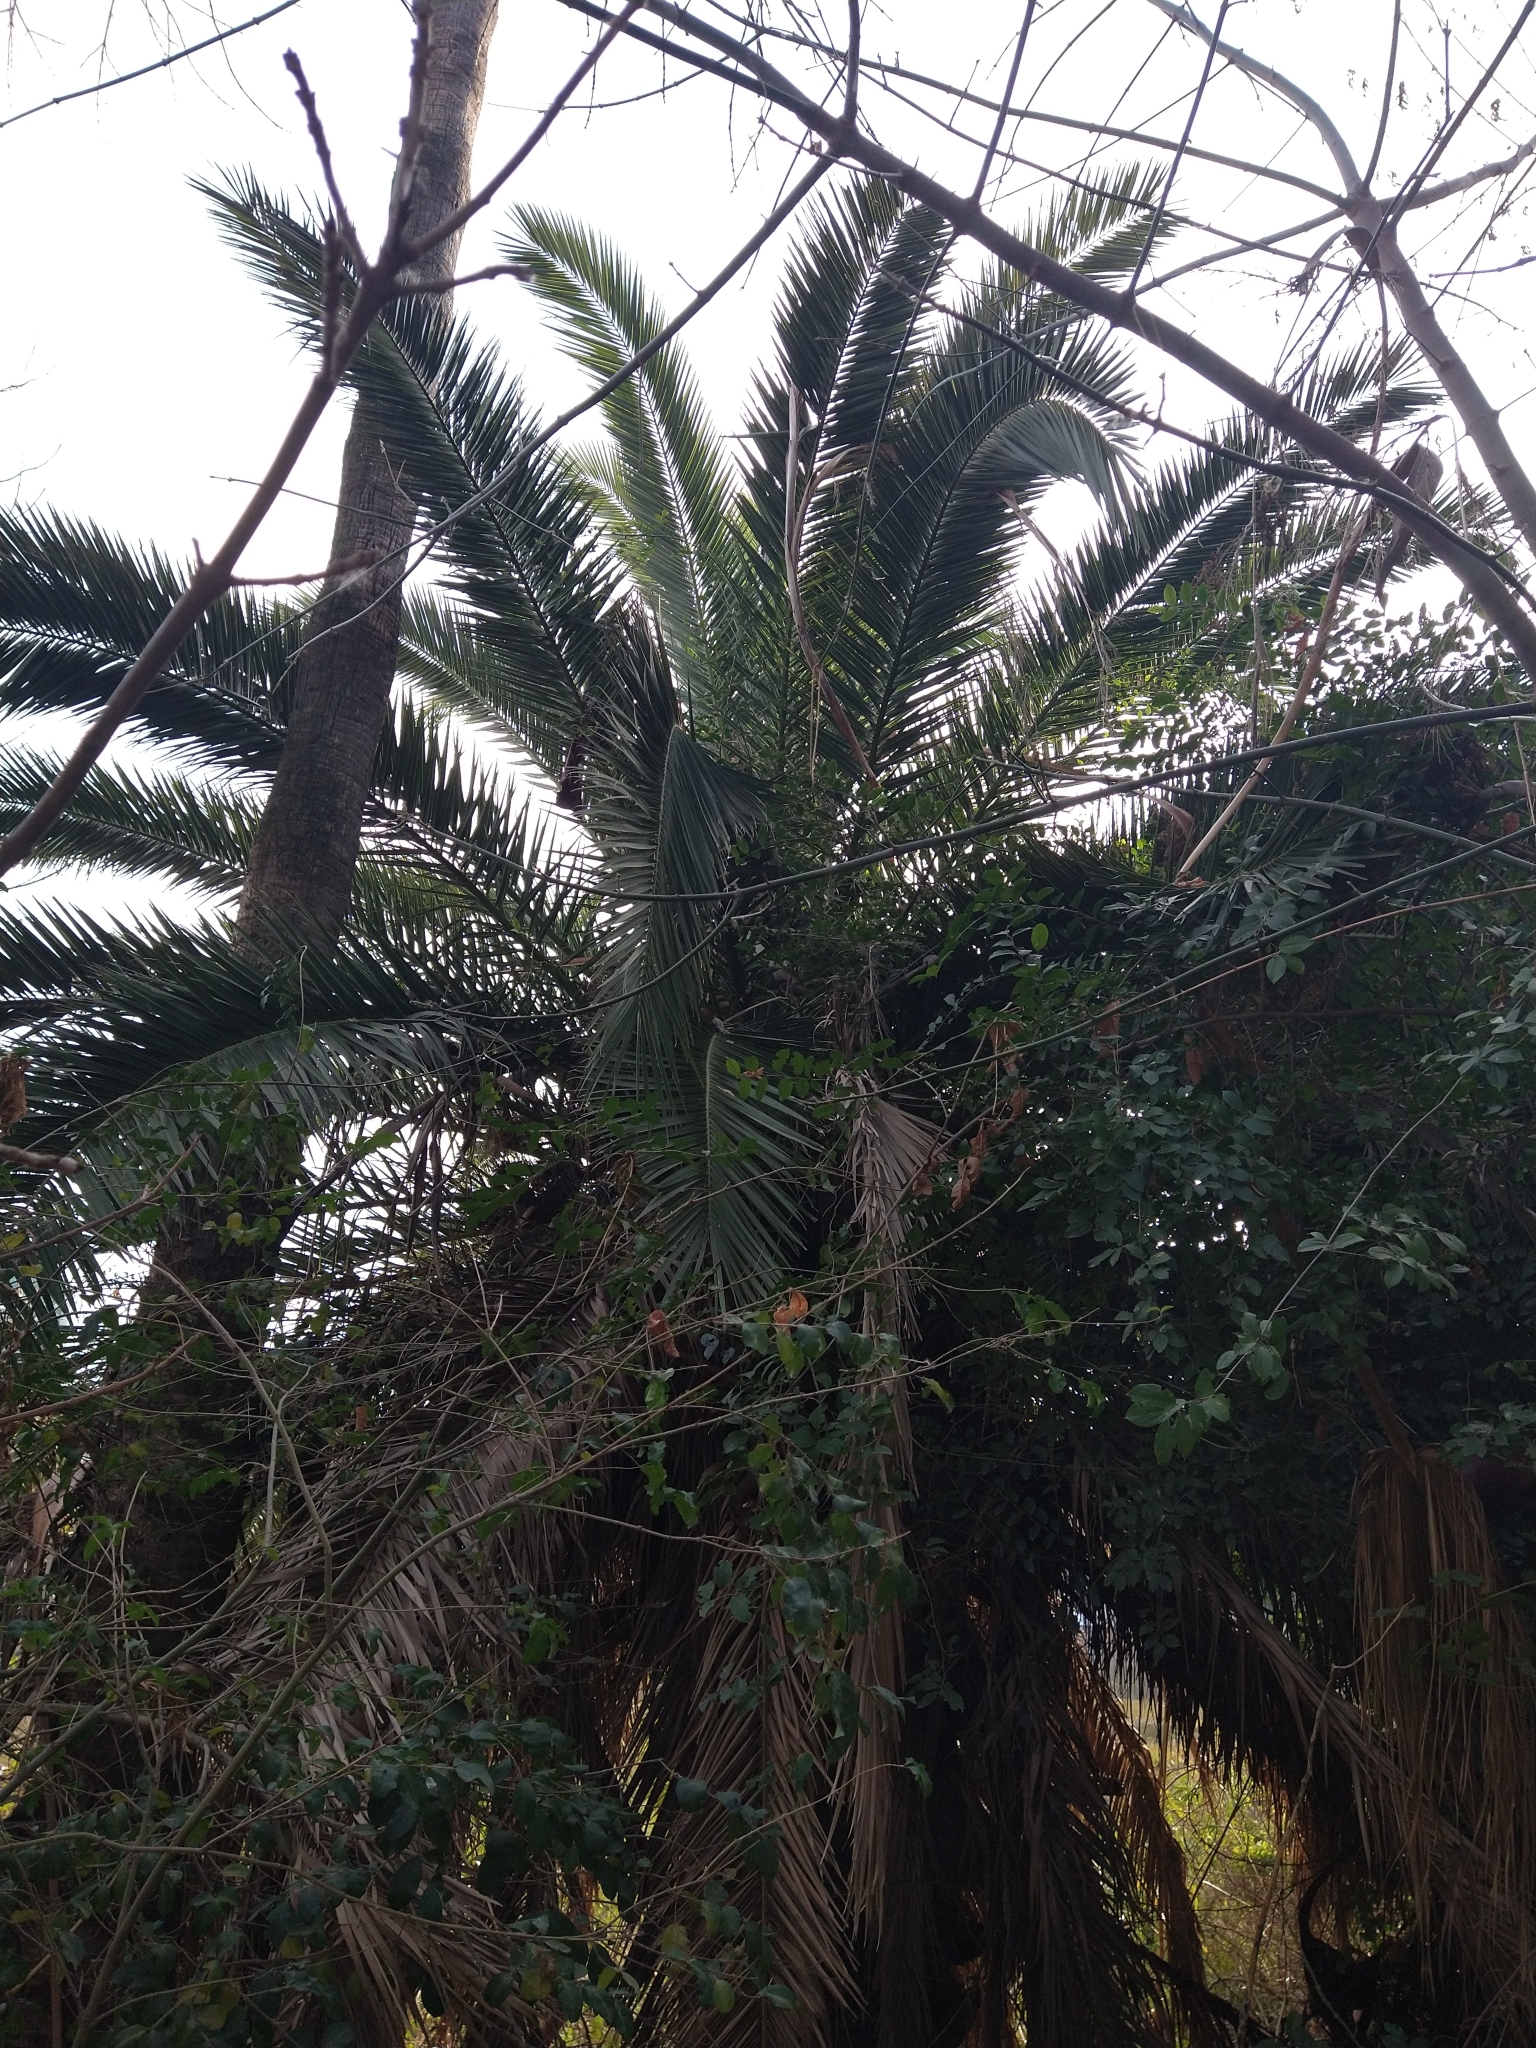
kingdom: Plantae
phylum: Tracheophyta
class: Liliopsida
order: Arecales
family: Arecaceae
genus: Phoenix
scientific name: Phoenix canariensis
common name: Canary island date palm
